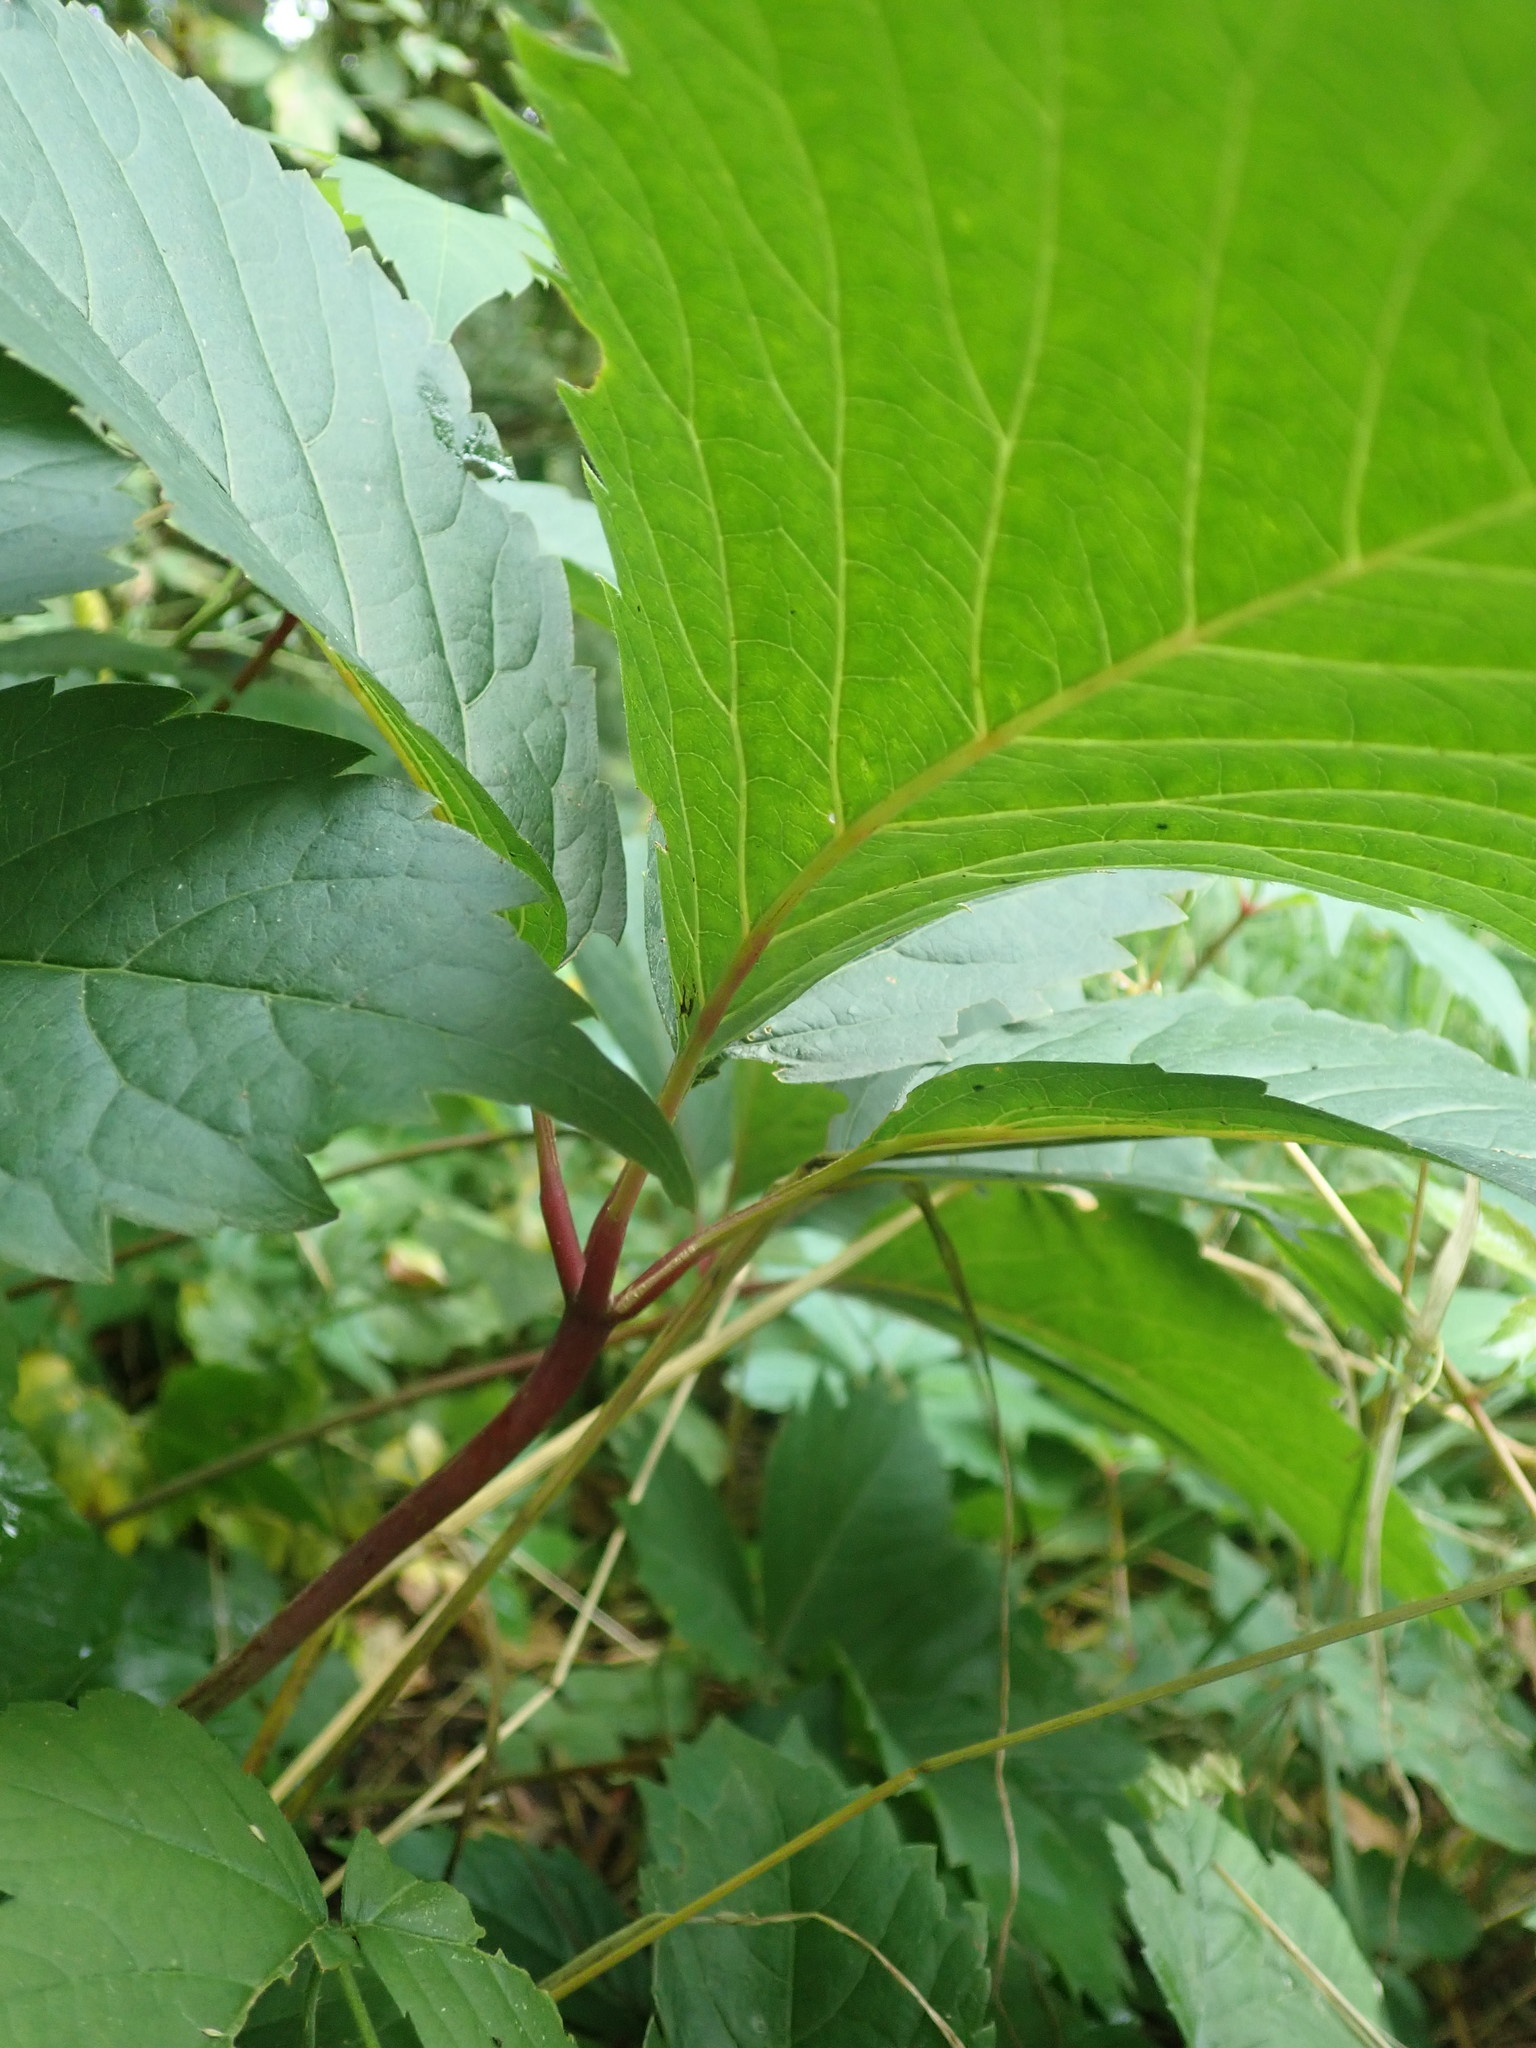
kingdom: Plantae
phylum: Tracheophyta
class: Magnoliopsida
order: Vitales
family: Vitaceae
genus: Parthenocissus
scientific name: Parthenocissus inserta
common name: False virginia-creeper
